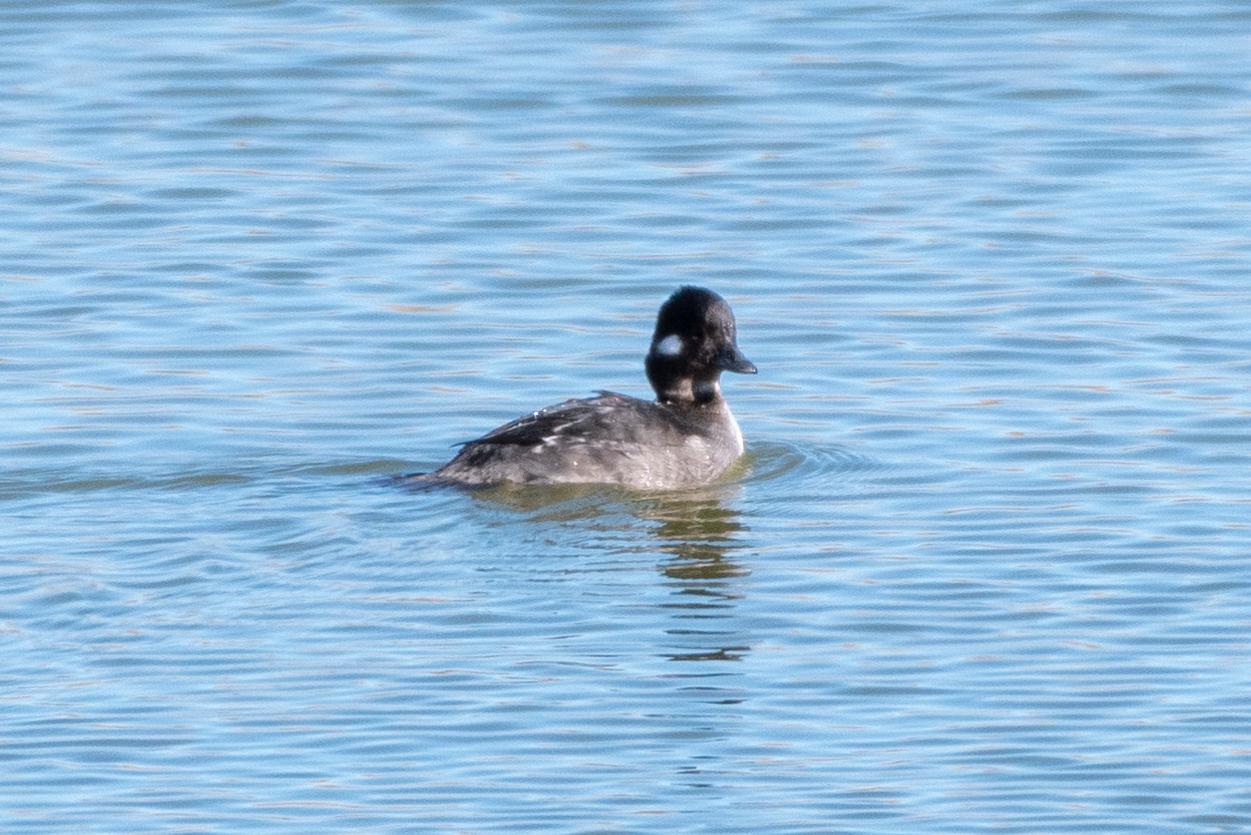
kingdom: Animalia
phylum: Chordata
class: Aves
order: Anseriformes
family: Anatidae
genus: Bucephala
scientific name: Bucephala albeola
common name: Bufflehead
